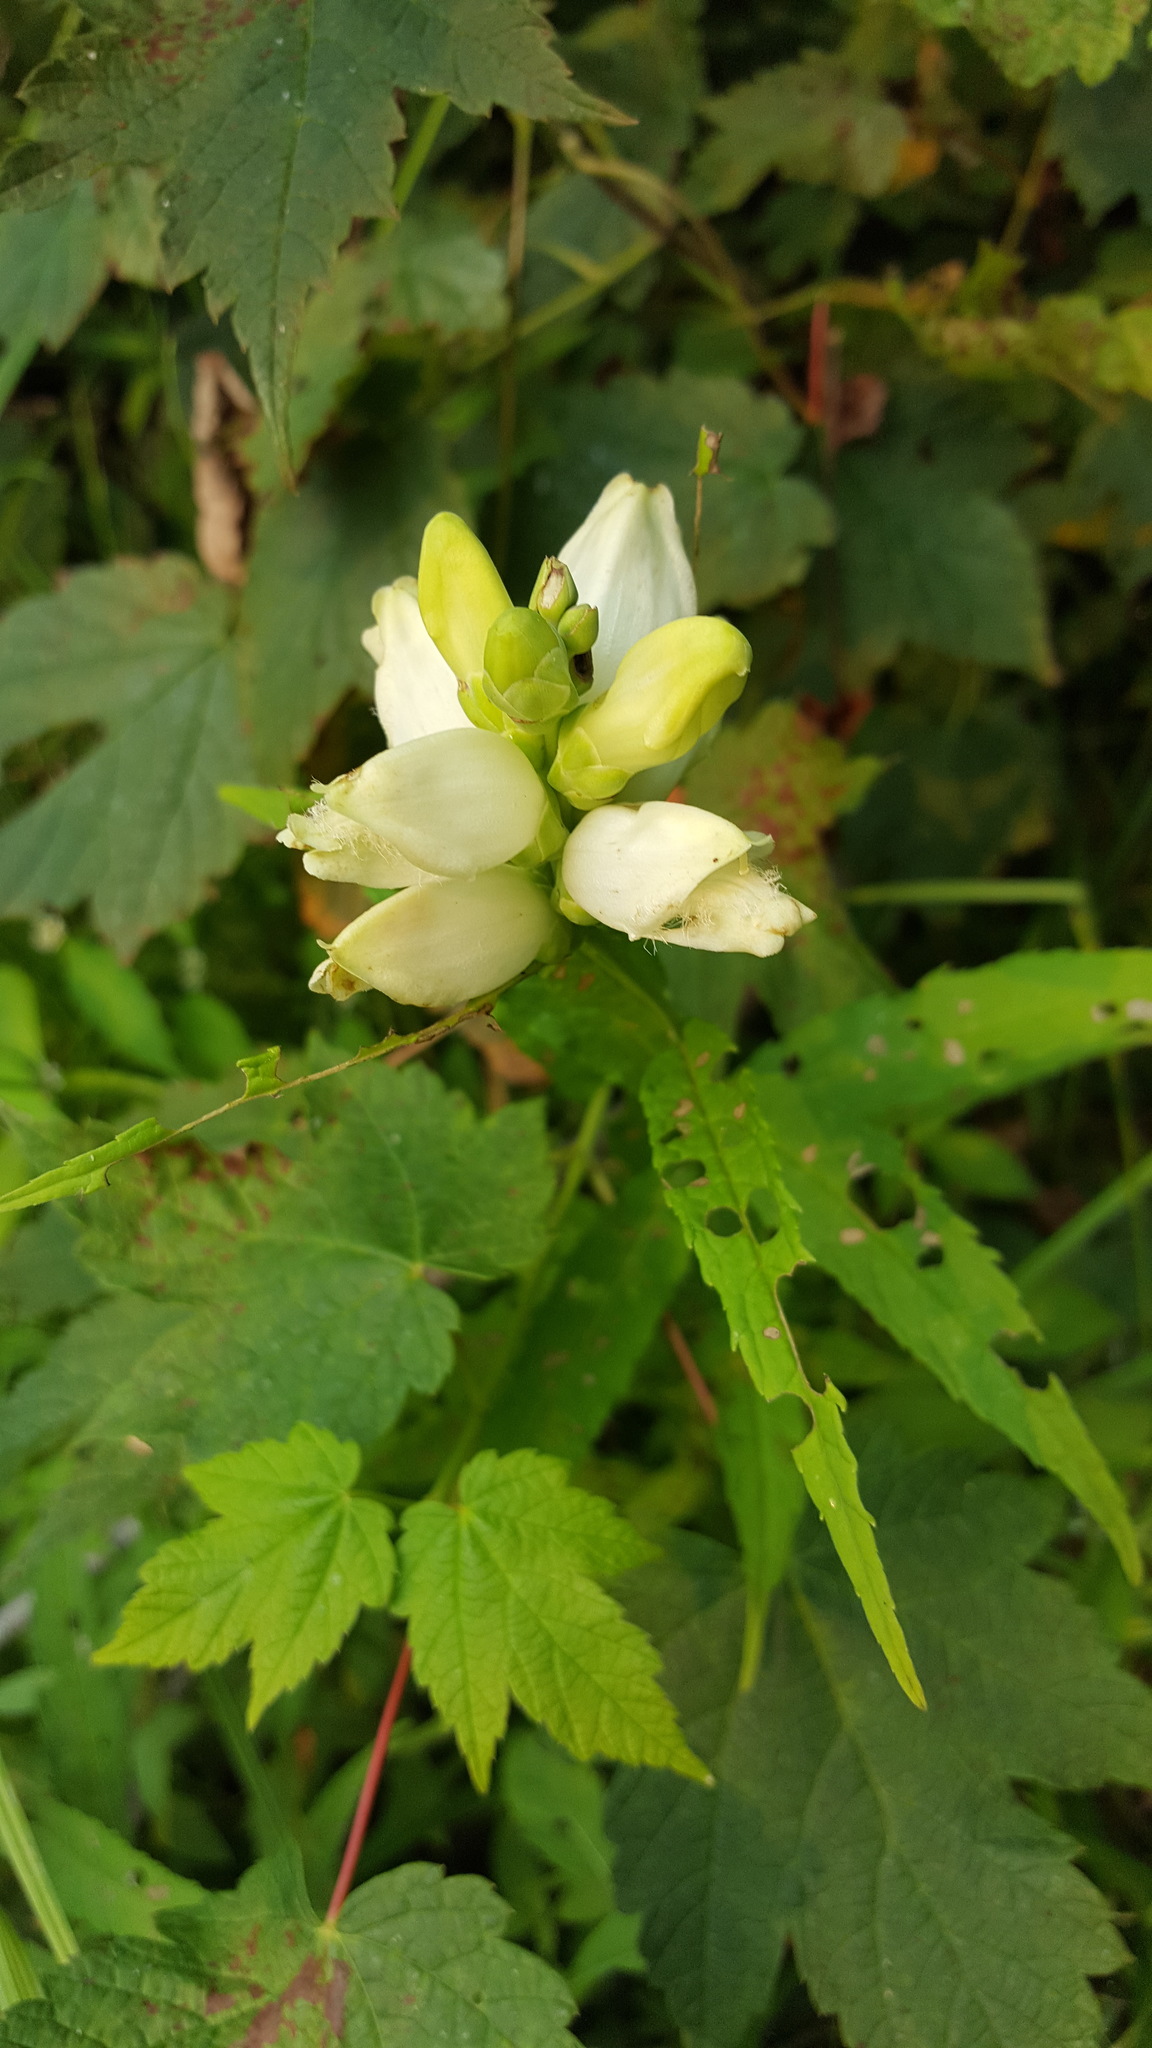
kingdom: Plantae
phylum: Tracheophyta
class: Magnoliopsida
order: Lamiales
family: Plantaginaceae
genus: Chelone
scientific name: Chelone glabra
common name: Snakehead
